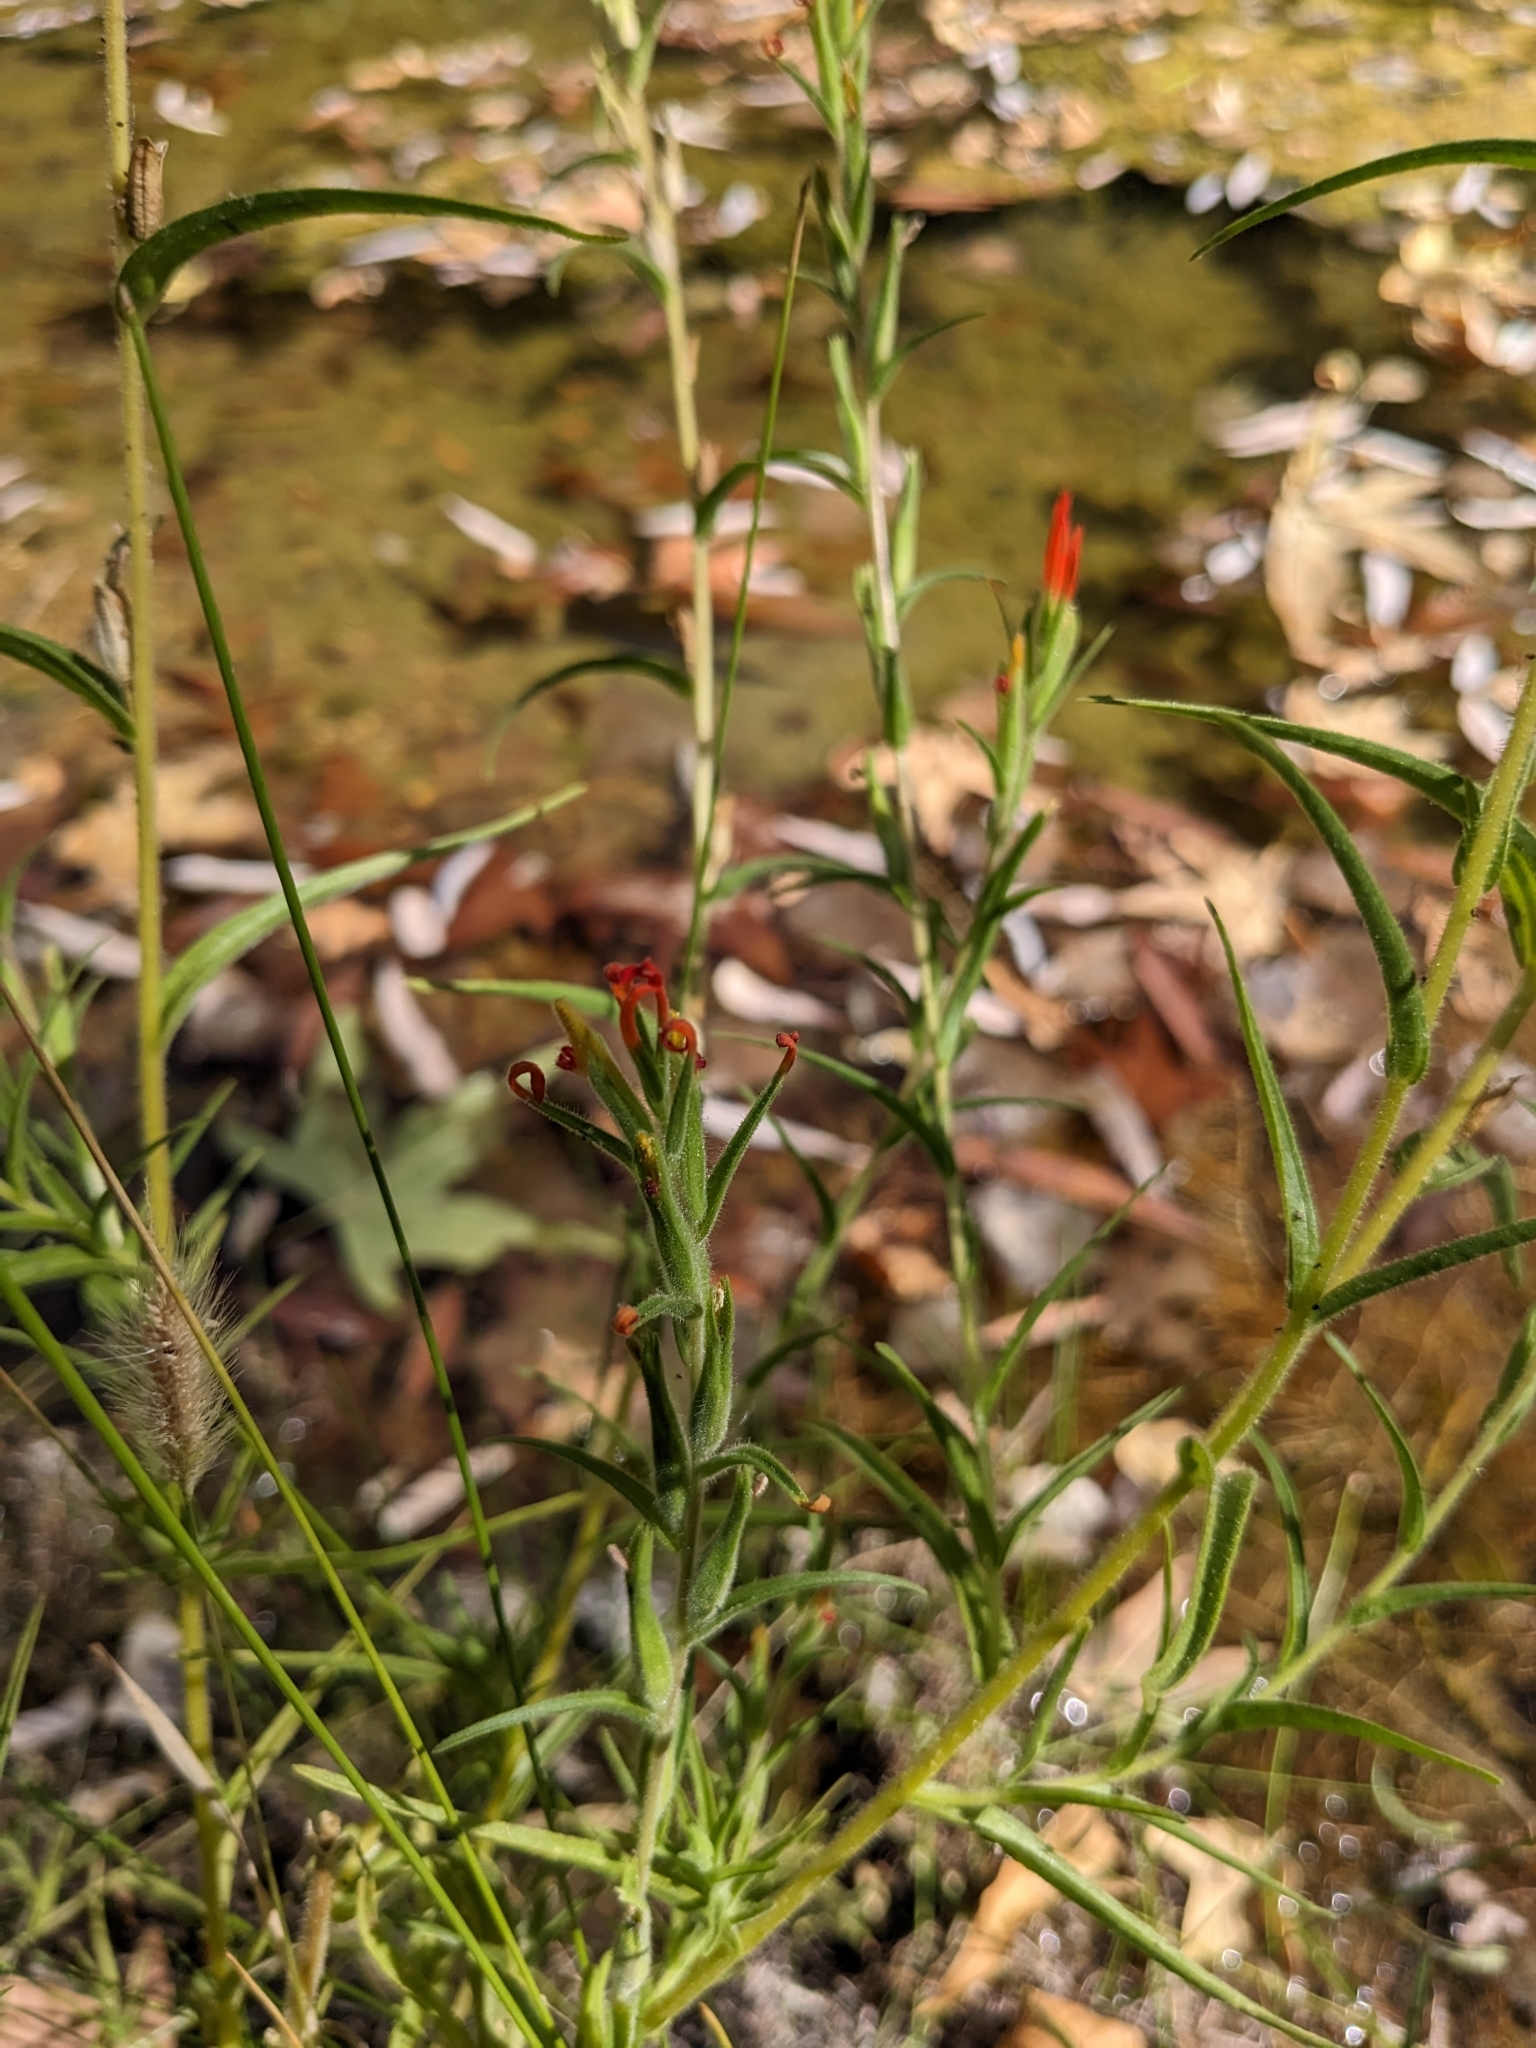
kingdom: Plantae
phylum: Tracheophyta
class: Magnoliopsida
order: Lamiales
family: Orobanchaceae
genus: Castilleja
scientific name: Castilleja minor
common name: Seep paintbrush
